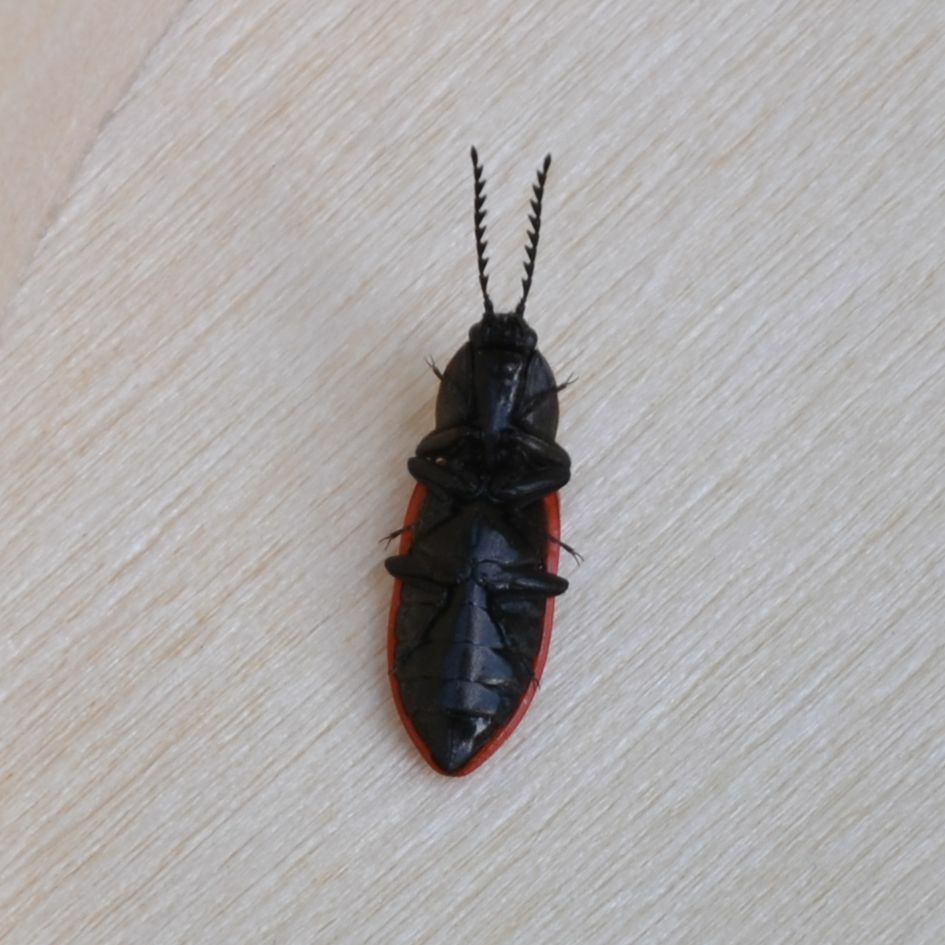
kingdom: Animalia
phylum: Arthropoda
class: Insecta
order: Coleoptera
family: Elateridae
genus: Anostirus
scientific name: Anostirus purpureus
